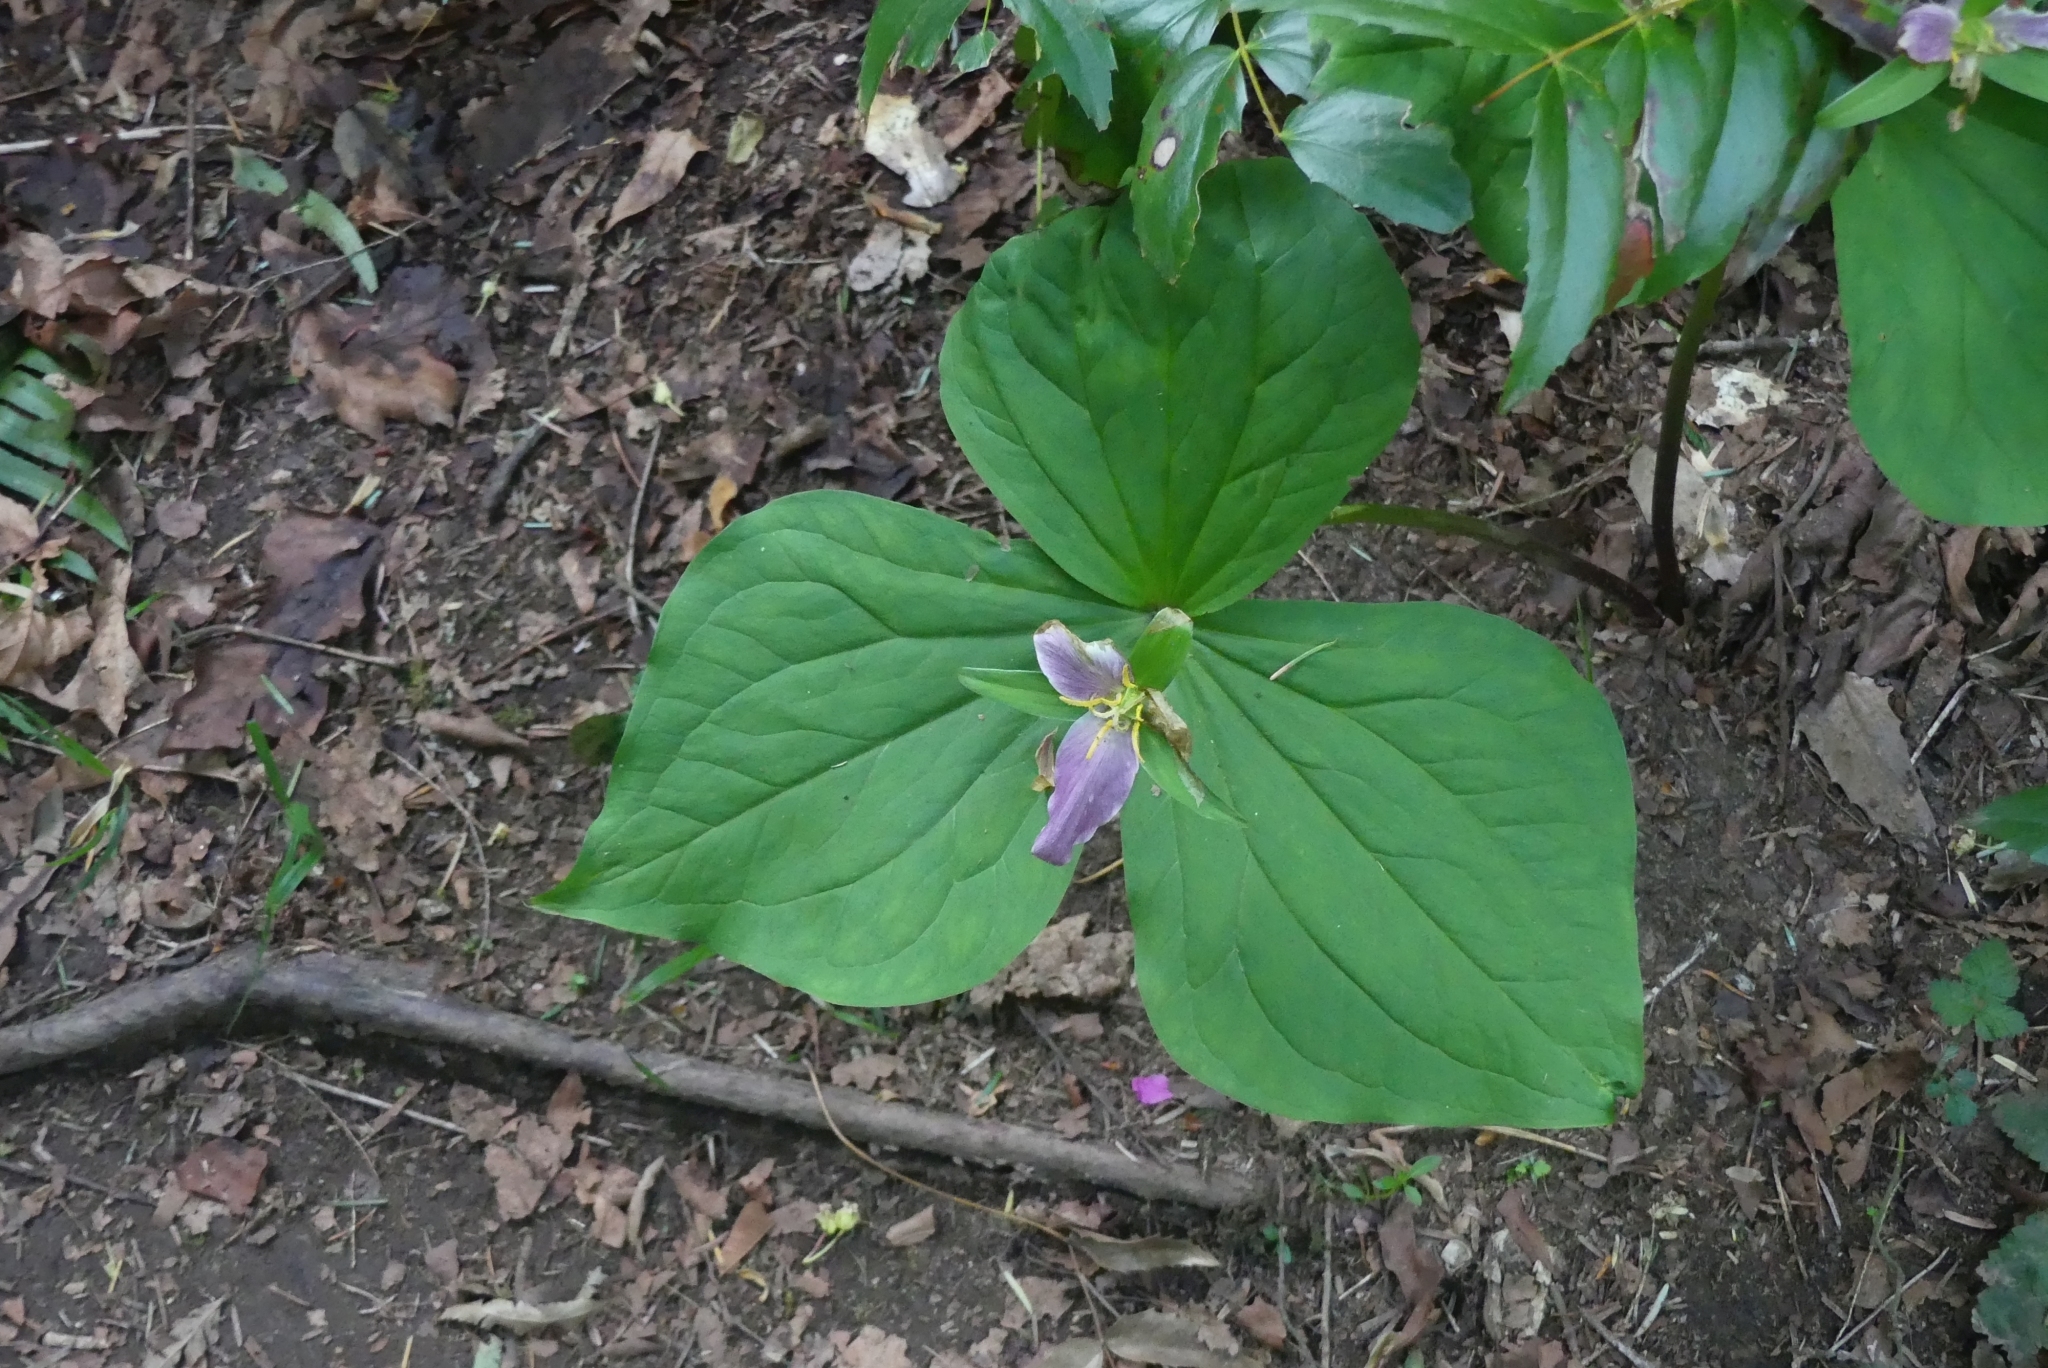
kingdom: Plantae
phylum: Tracheophyta
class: Liliopsida
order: Liliales
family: Melanthiaceae
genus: Trillium
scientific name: Trillium ovatum
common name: Pacific trillium
